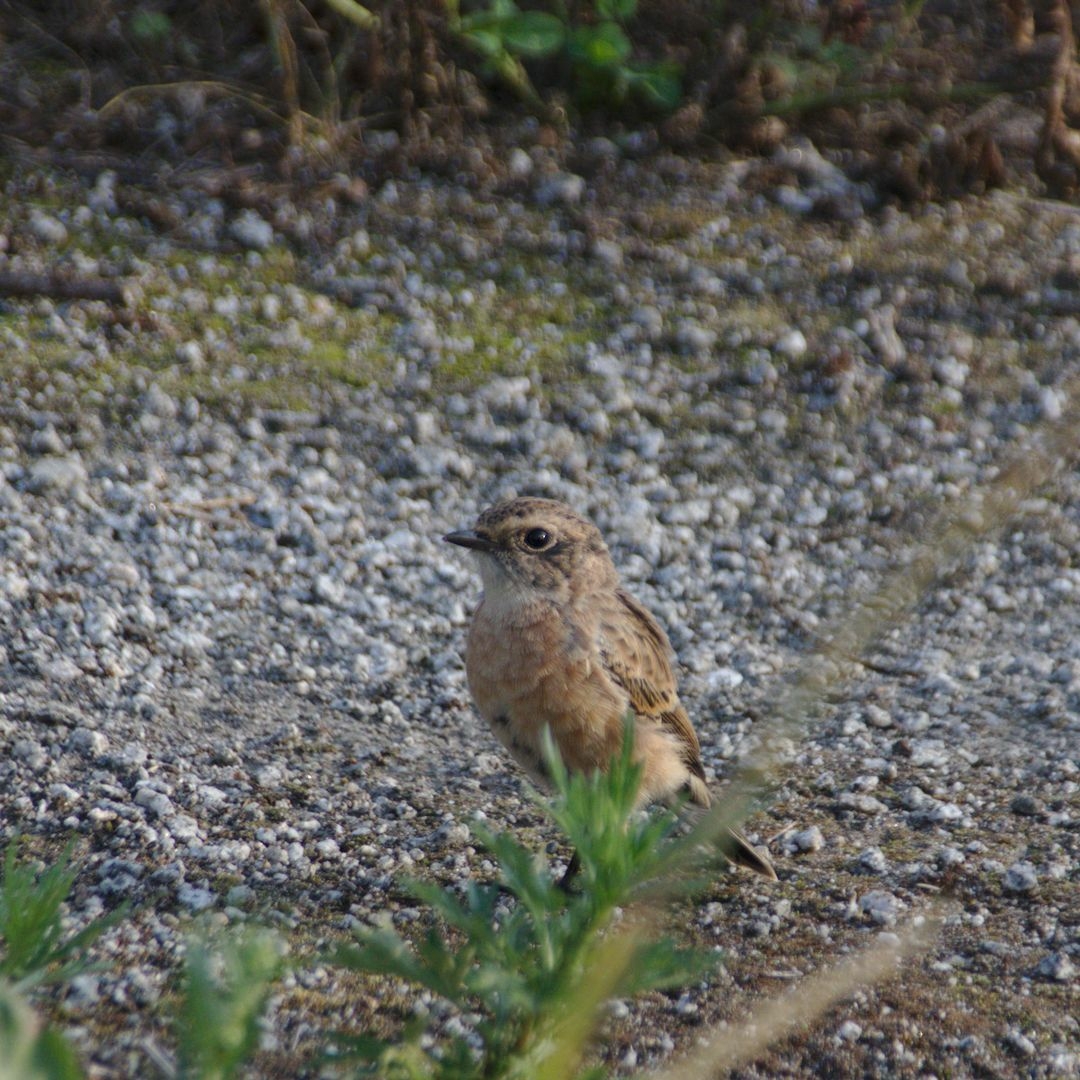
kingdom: Animalia
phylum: Chordata
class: Aves
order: Passeriformes
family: Muscicapidae
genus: Saxicola
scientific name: Saxicola maurus
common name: Siberian stonechat
